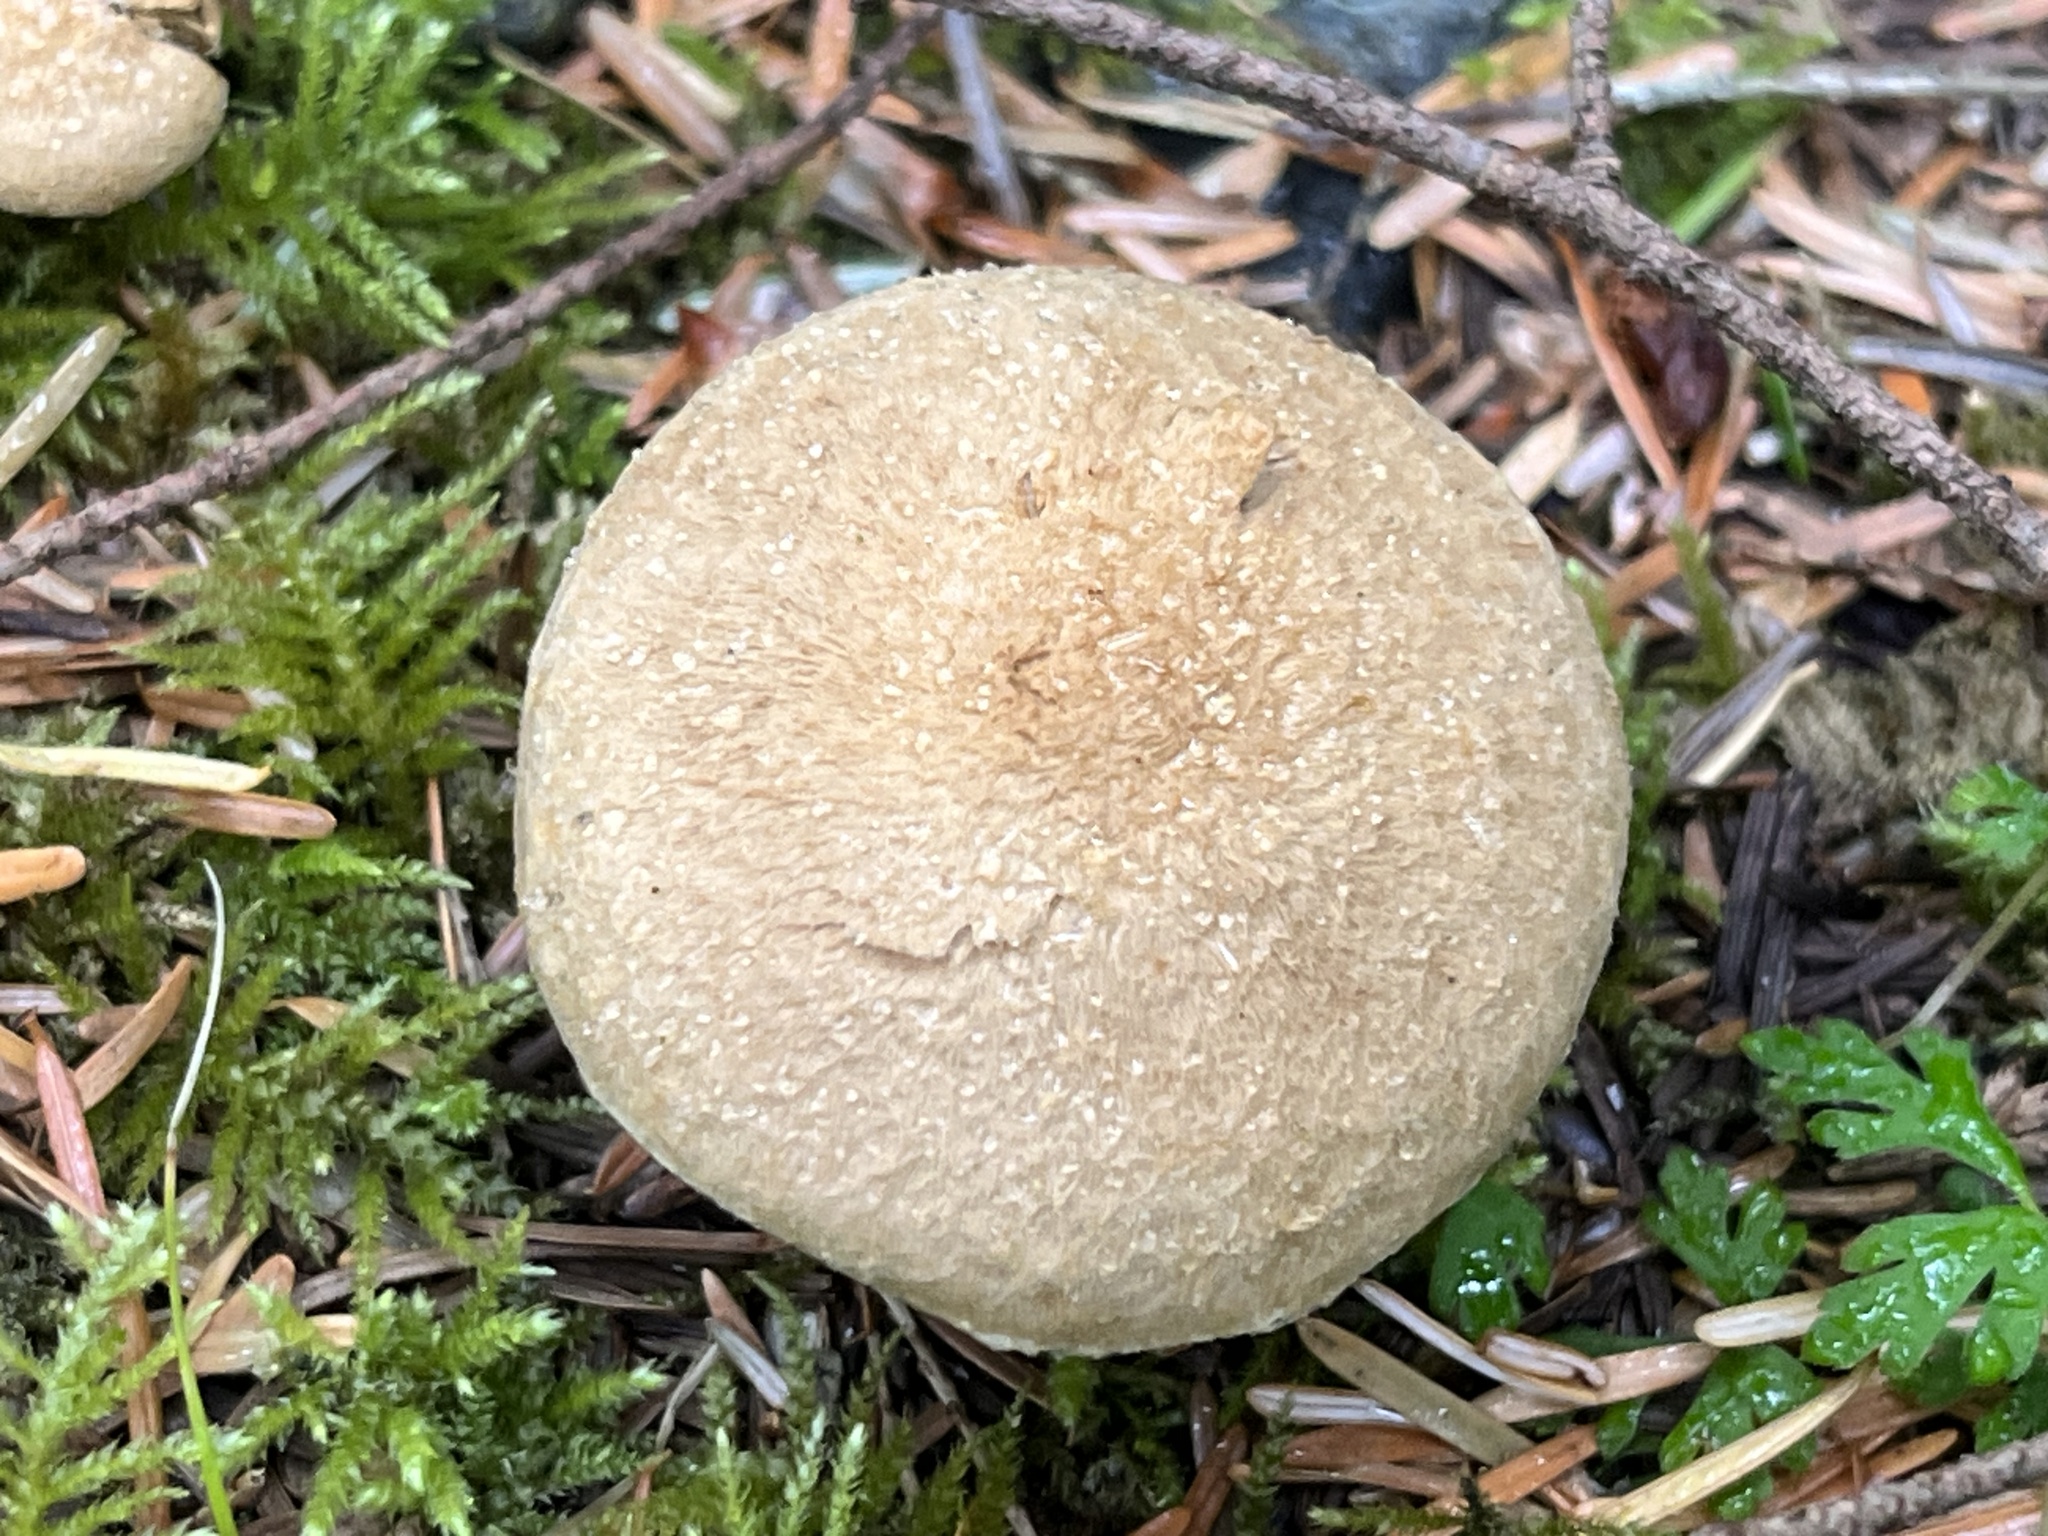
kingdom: Fungi
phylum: Basidiomycota
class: Agaricomycetes
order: Agaricales
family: Inocybaceae
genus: Inosperma
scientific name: Inosperma maximum
